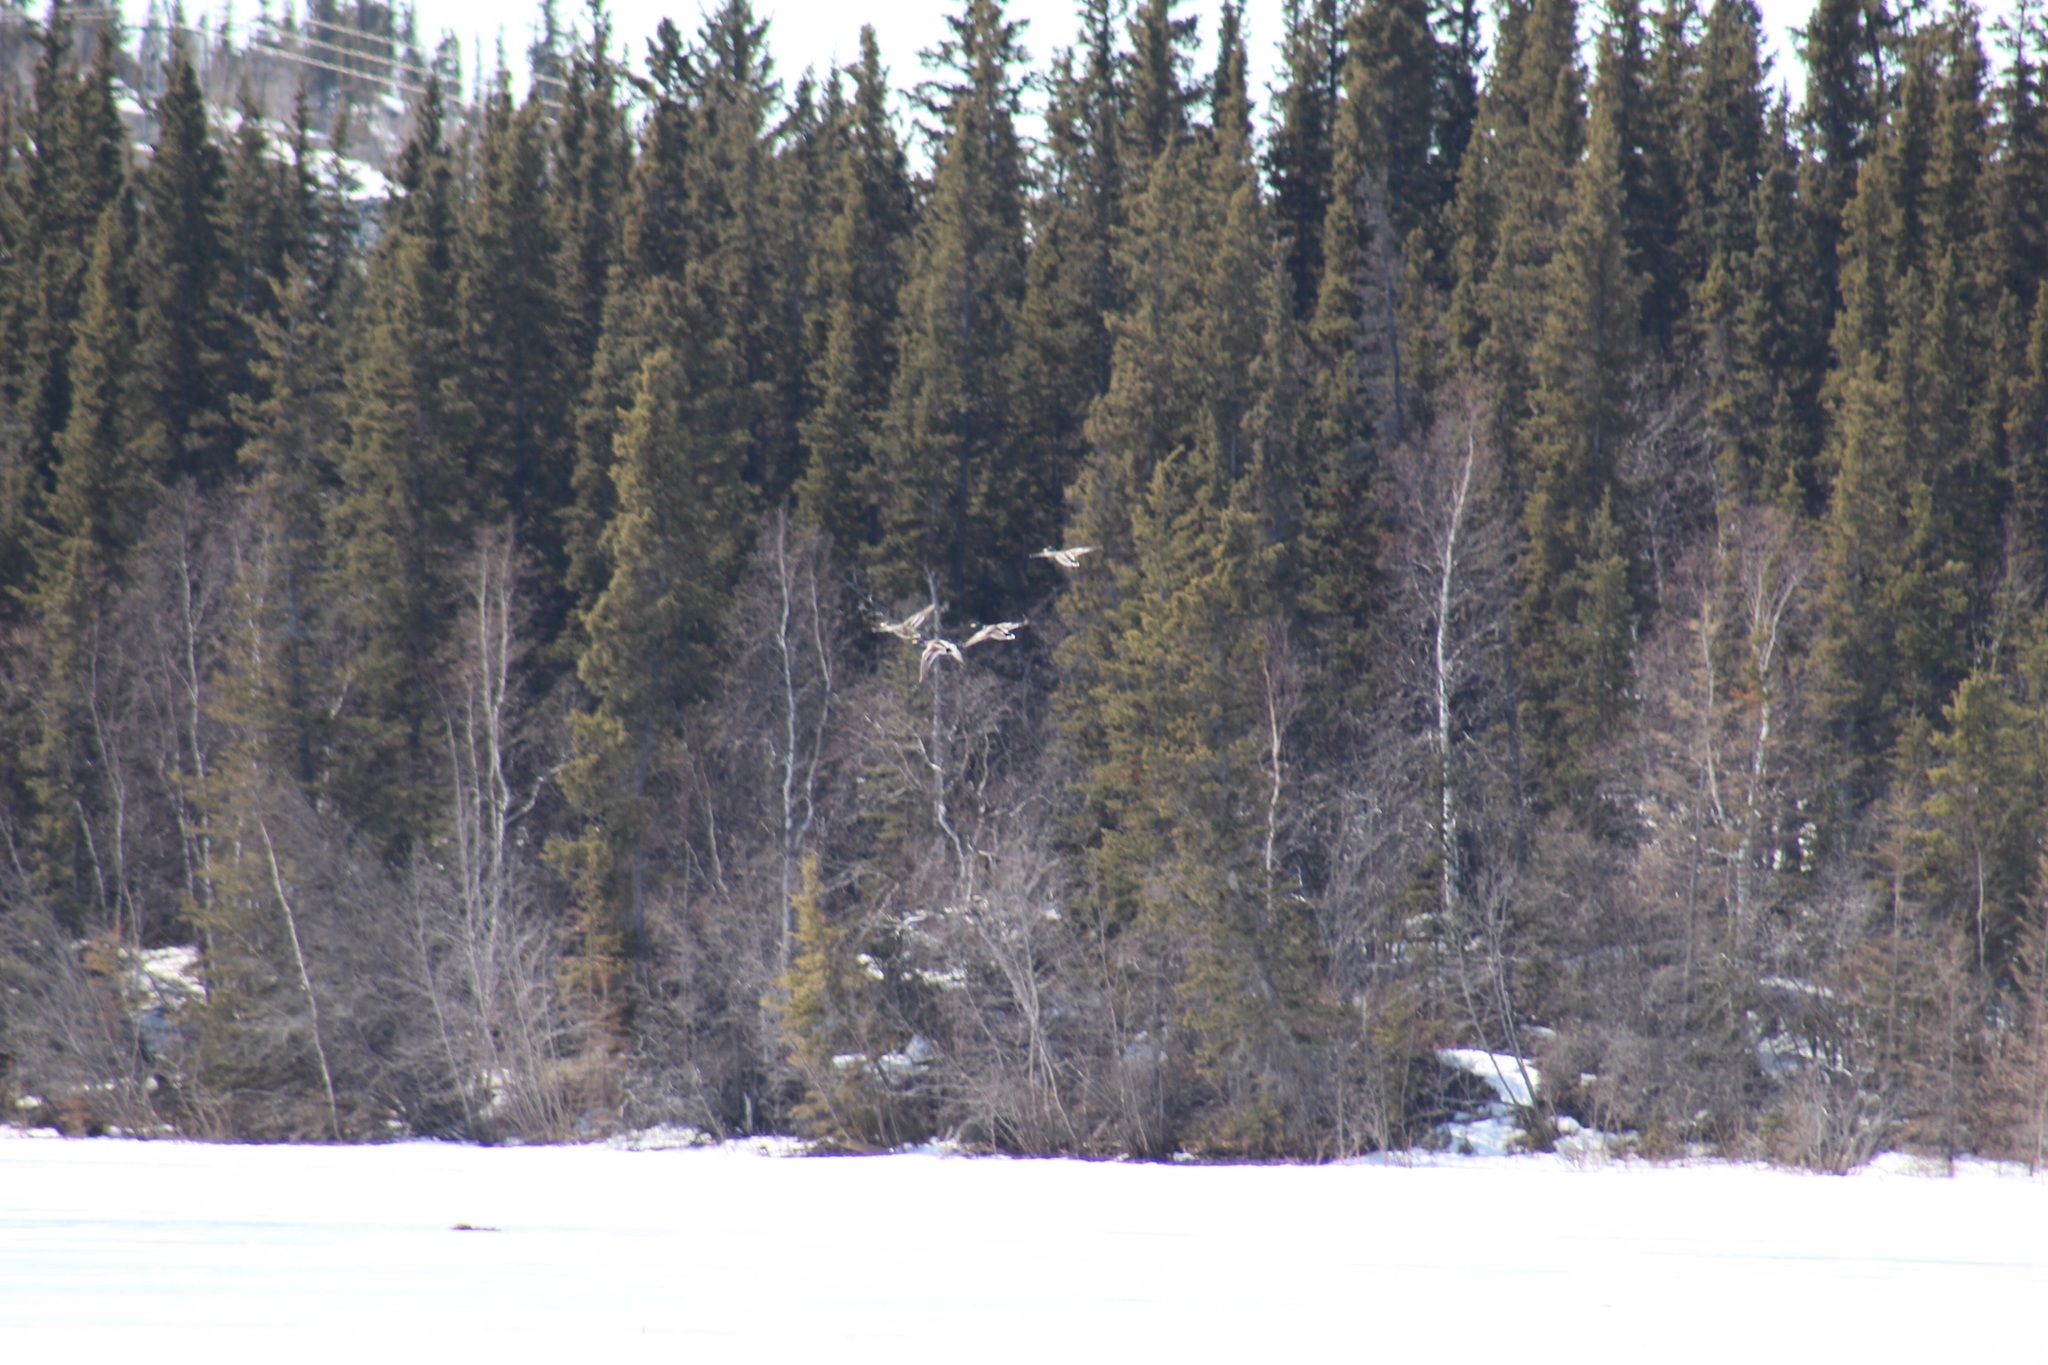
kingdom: Animalia
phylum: Chordata
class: Aves
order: Anseriformes
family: Anatidae
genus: Anas
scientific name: Anas platyrhynchos
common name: Mallard
